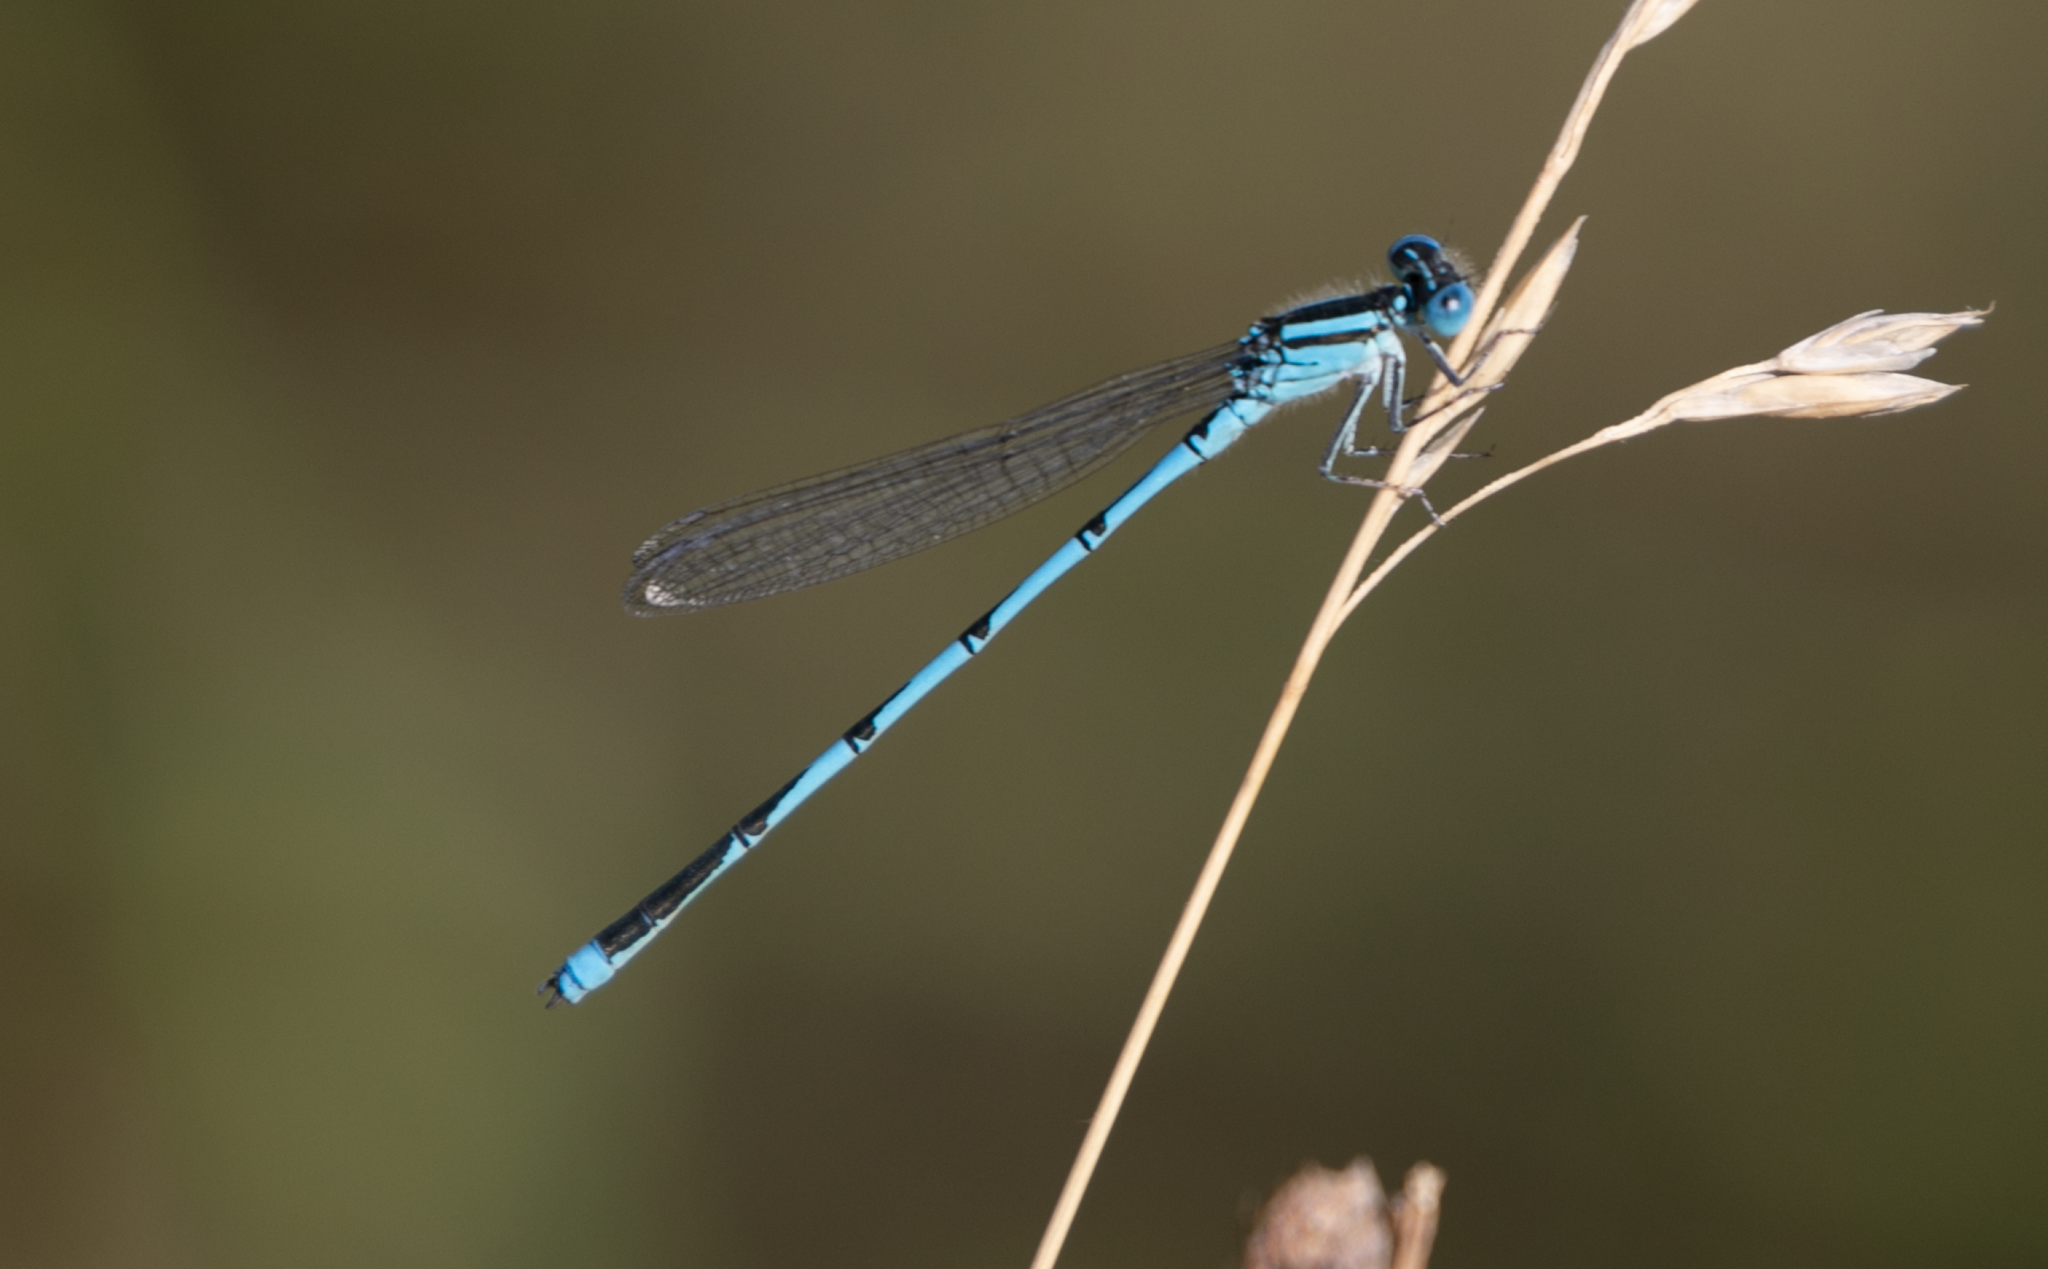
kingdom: Animalia
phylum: Arthropoda
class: Insecta
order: Odonata
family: Coenagrionidae
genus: Erythromma
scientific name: Erythromma lindenii
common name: Blue-eye
